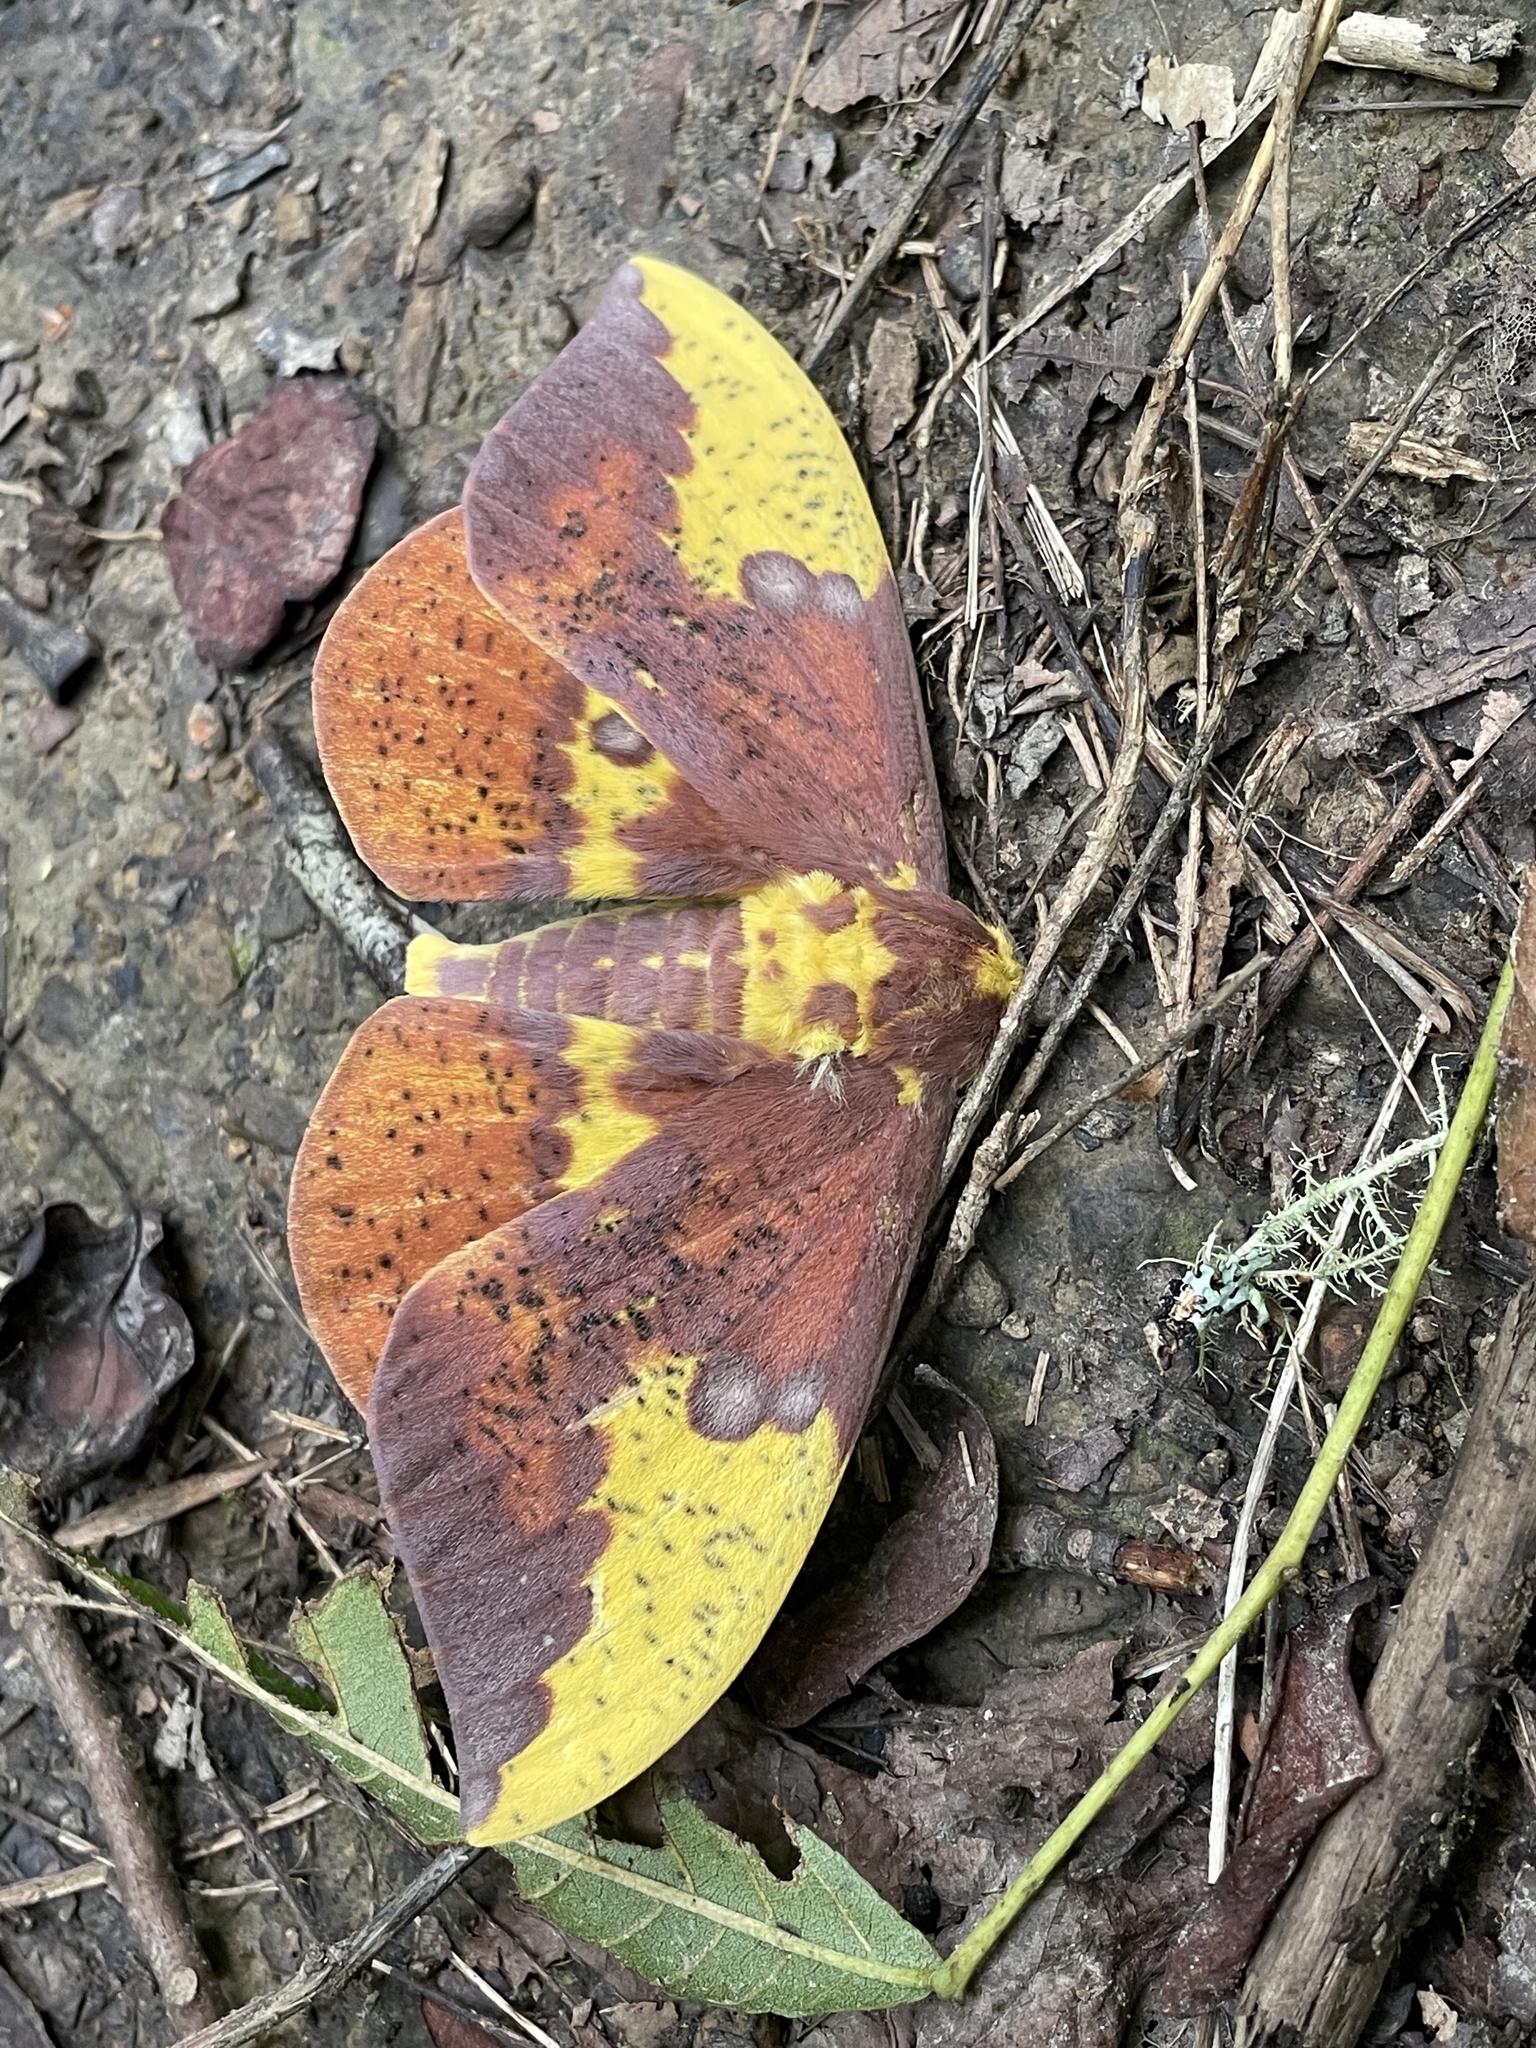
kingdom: Animalia
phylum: Arthropoda
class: Insecta
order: Lepidoptera
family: Saturniidae
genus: Eacles
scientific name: Eacles imperialis
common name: Imperial moth
